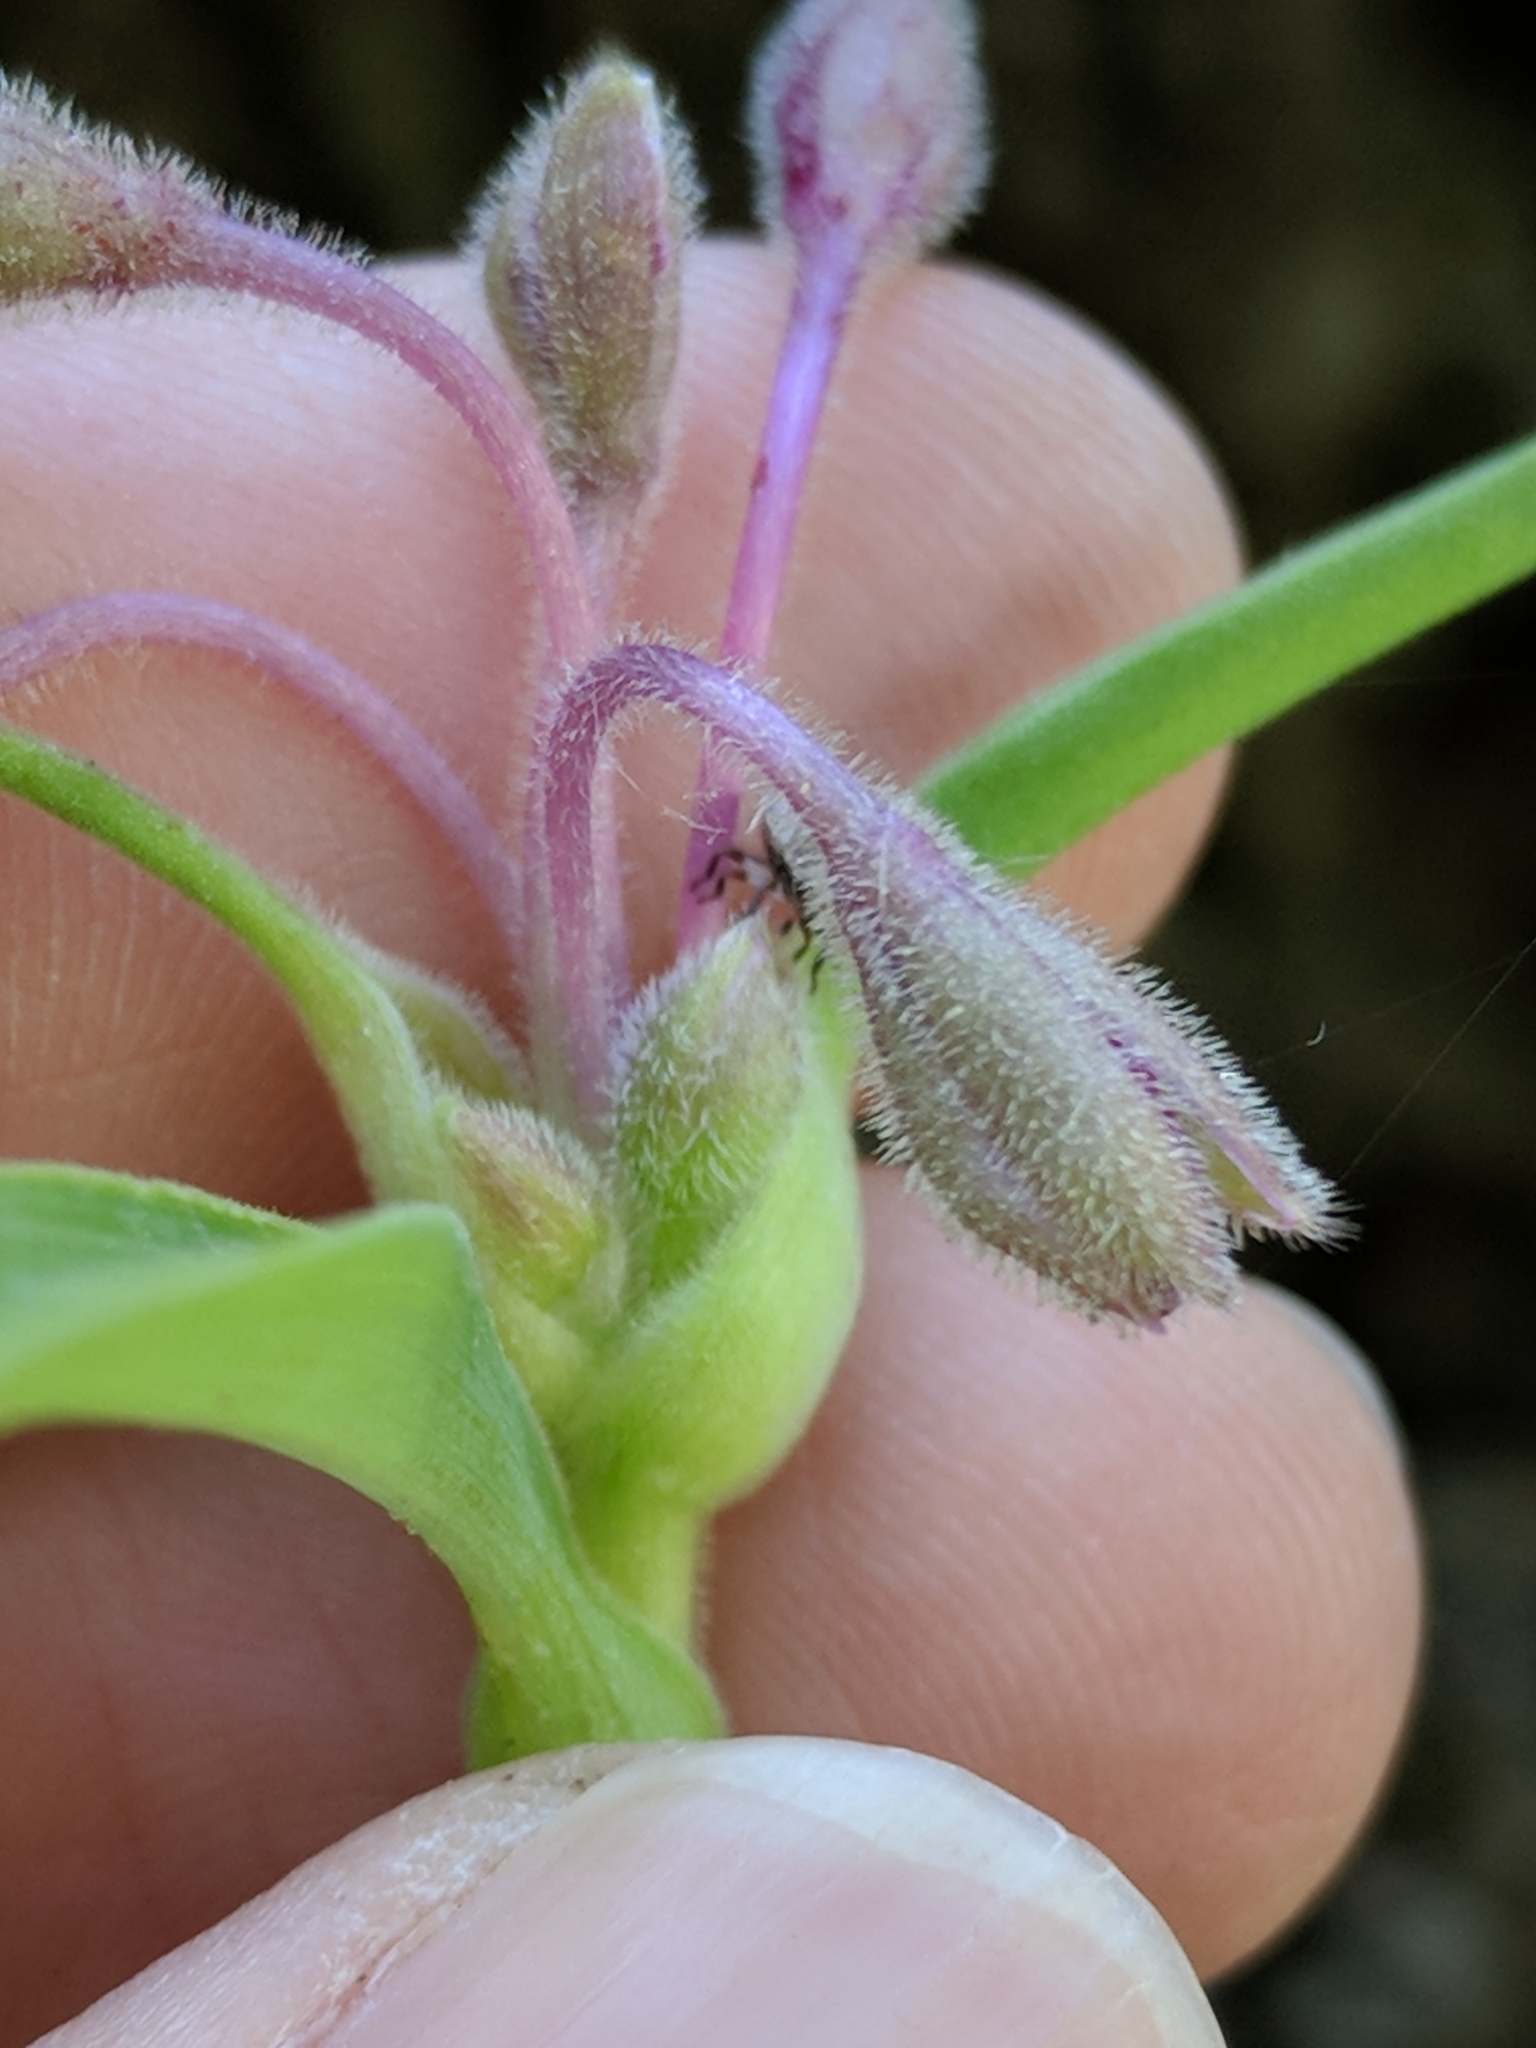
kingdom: Plantae
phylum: Tracheophyta
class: Liliopsida
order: Commelinales
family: Commelinaceae
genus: Tradescantia
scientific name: Tradescantia gigantea
